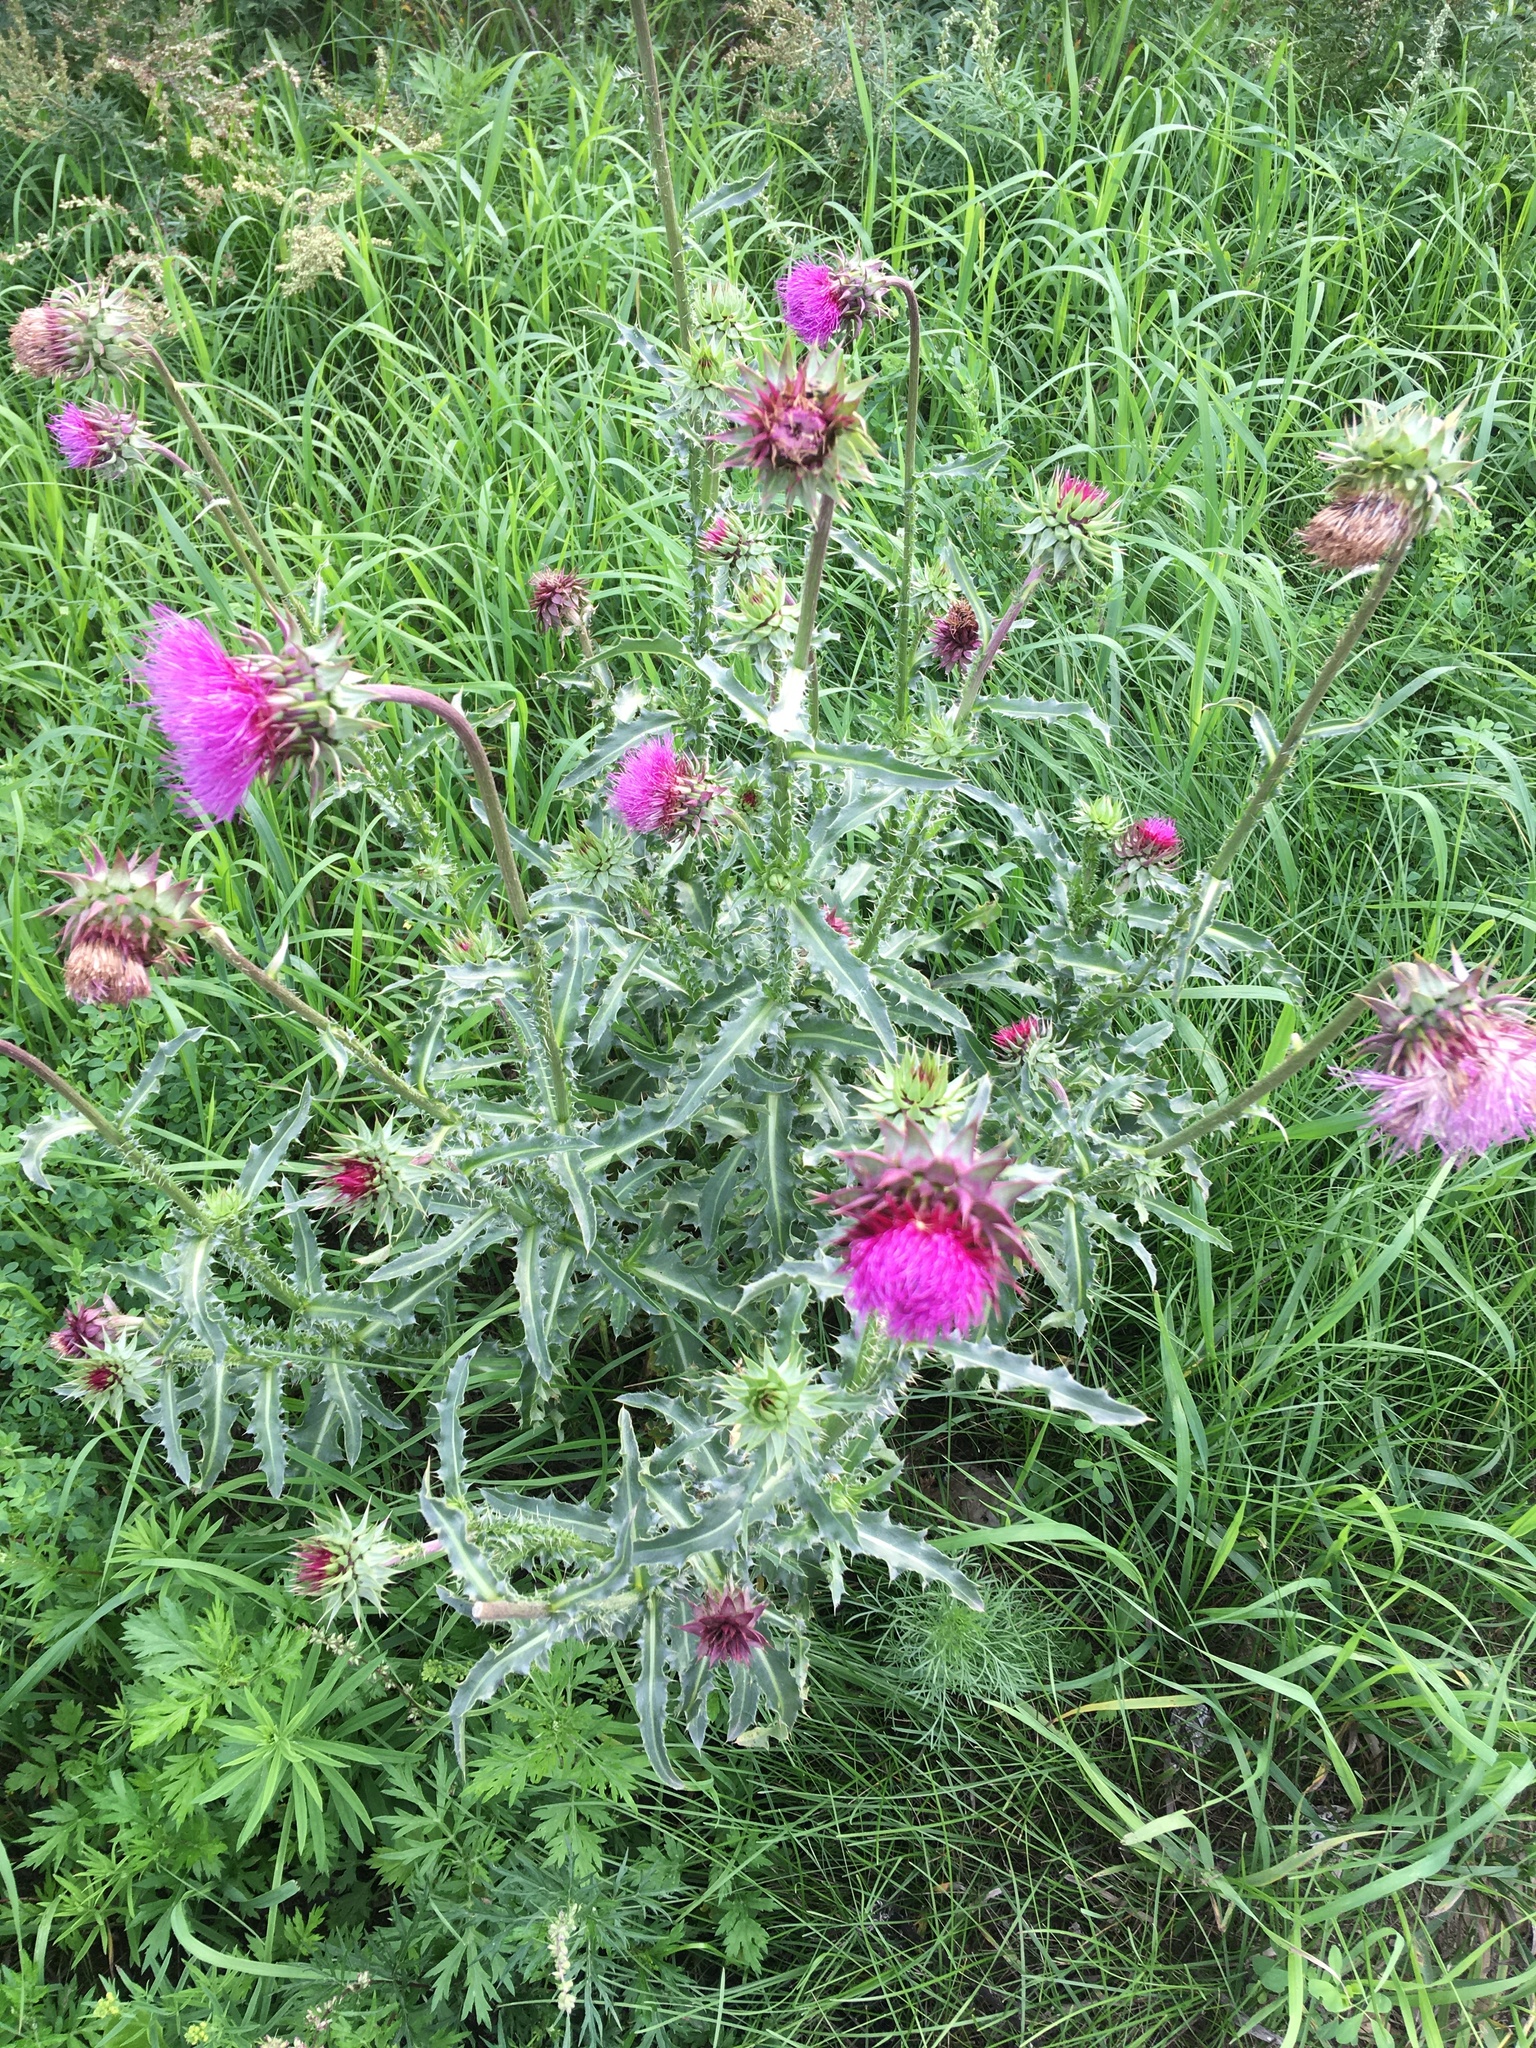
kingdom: Plantae
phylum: Tracheophyta
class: Magnoliopsida
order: Asterales
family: Asteraceae
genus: Carduus
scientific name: Carduus nutans
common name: Musk thistle
